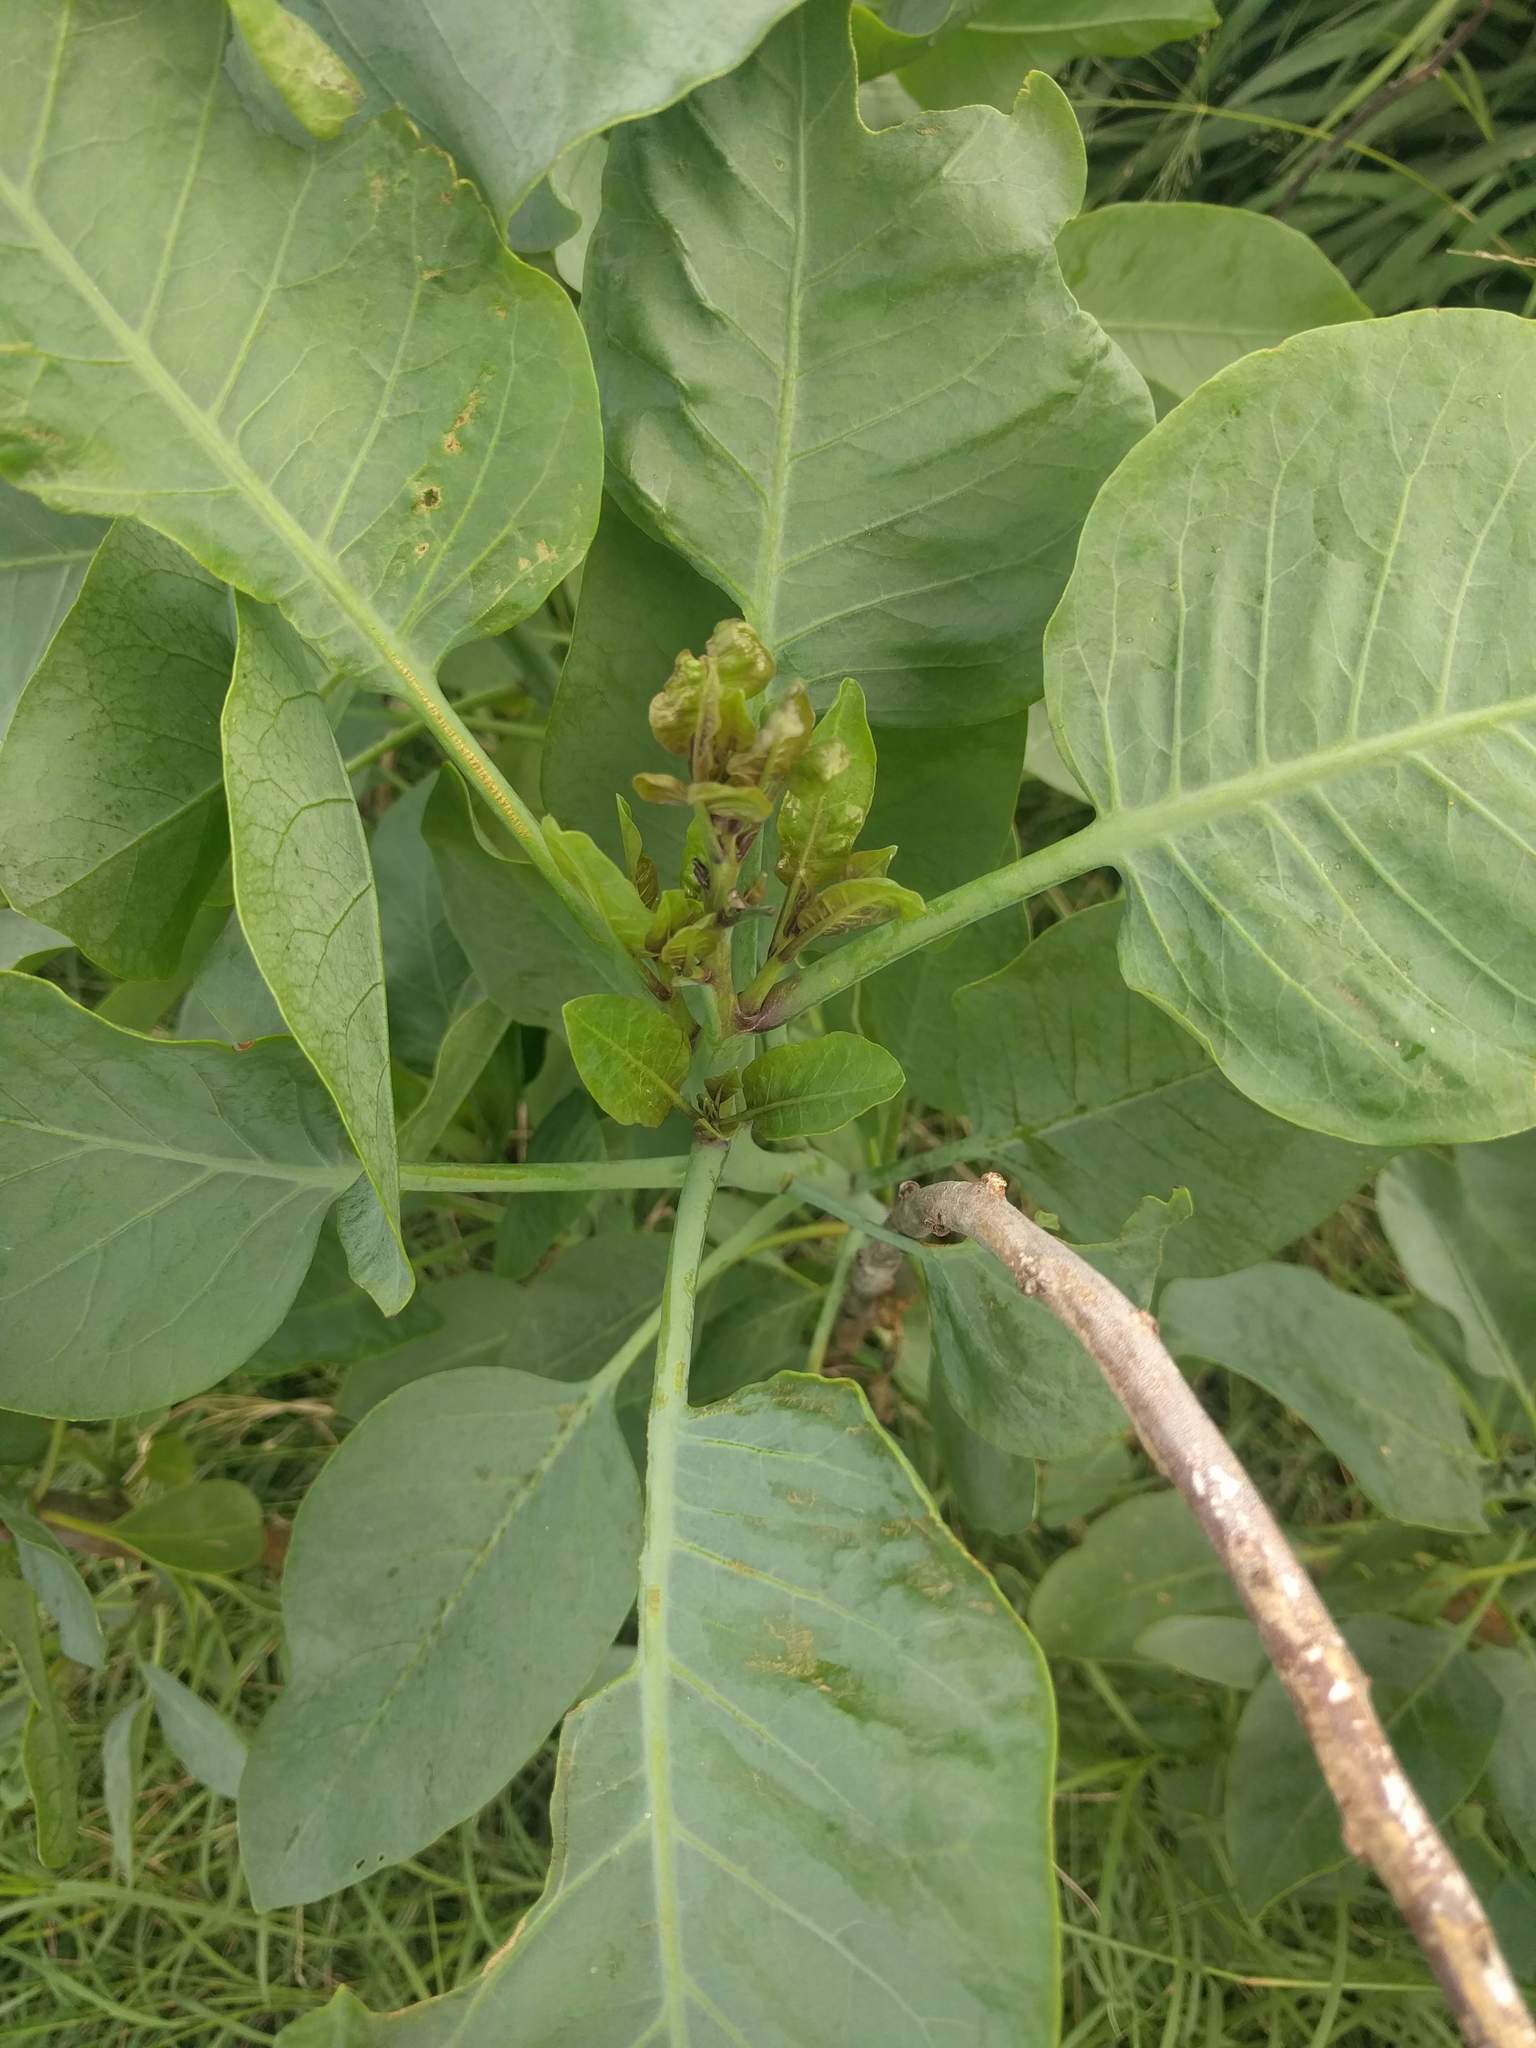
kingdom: Plantae
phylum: Tracheophyta
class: Magnoliopsida
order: Solanales
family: Solanaceae
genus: Nicotiana
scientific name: Nicotiana glauca
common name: Tree tobacco
